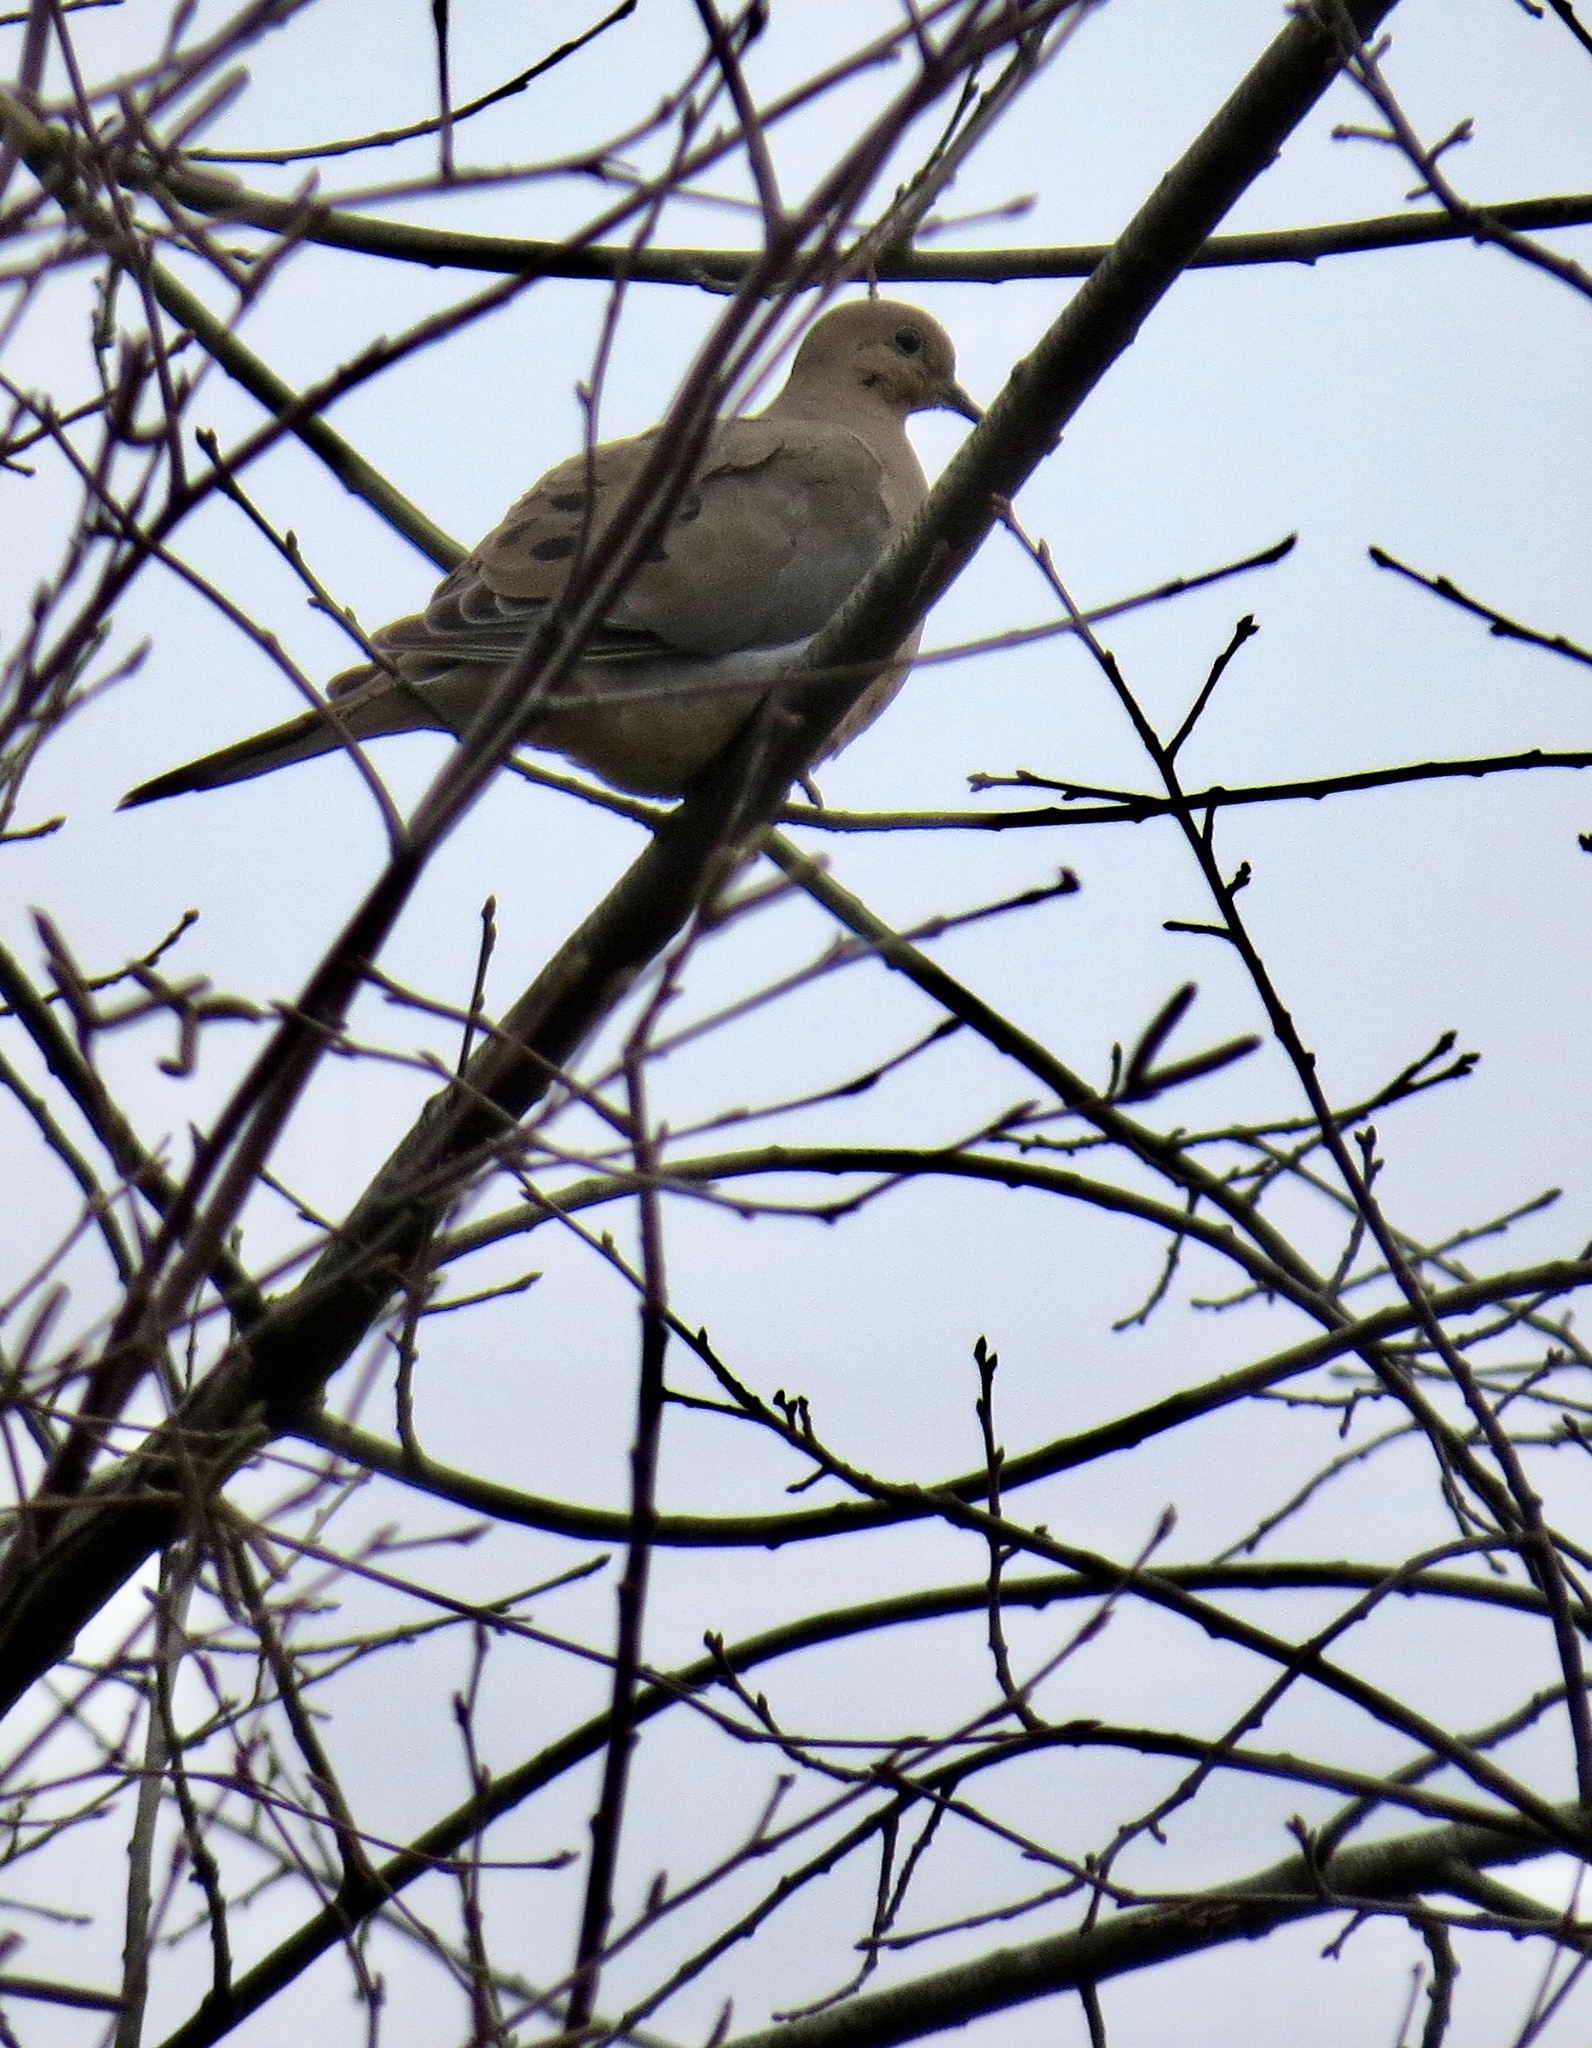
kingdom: Animalia
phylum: Chordata
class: Aves
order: Columbiformes
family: Columbidae
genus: Zenaida
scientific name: Zenaida macroura
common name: Mourning dove
